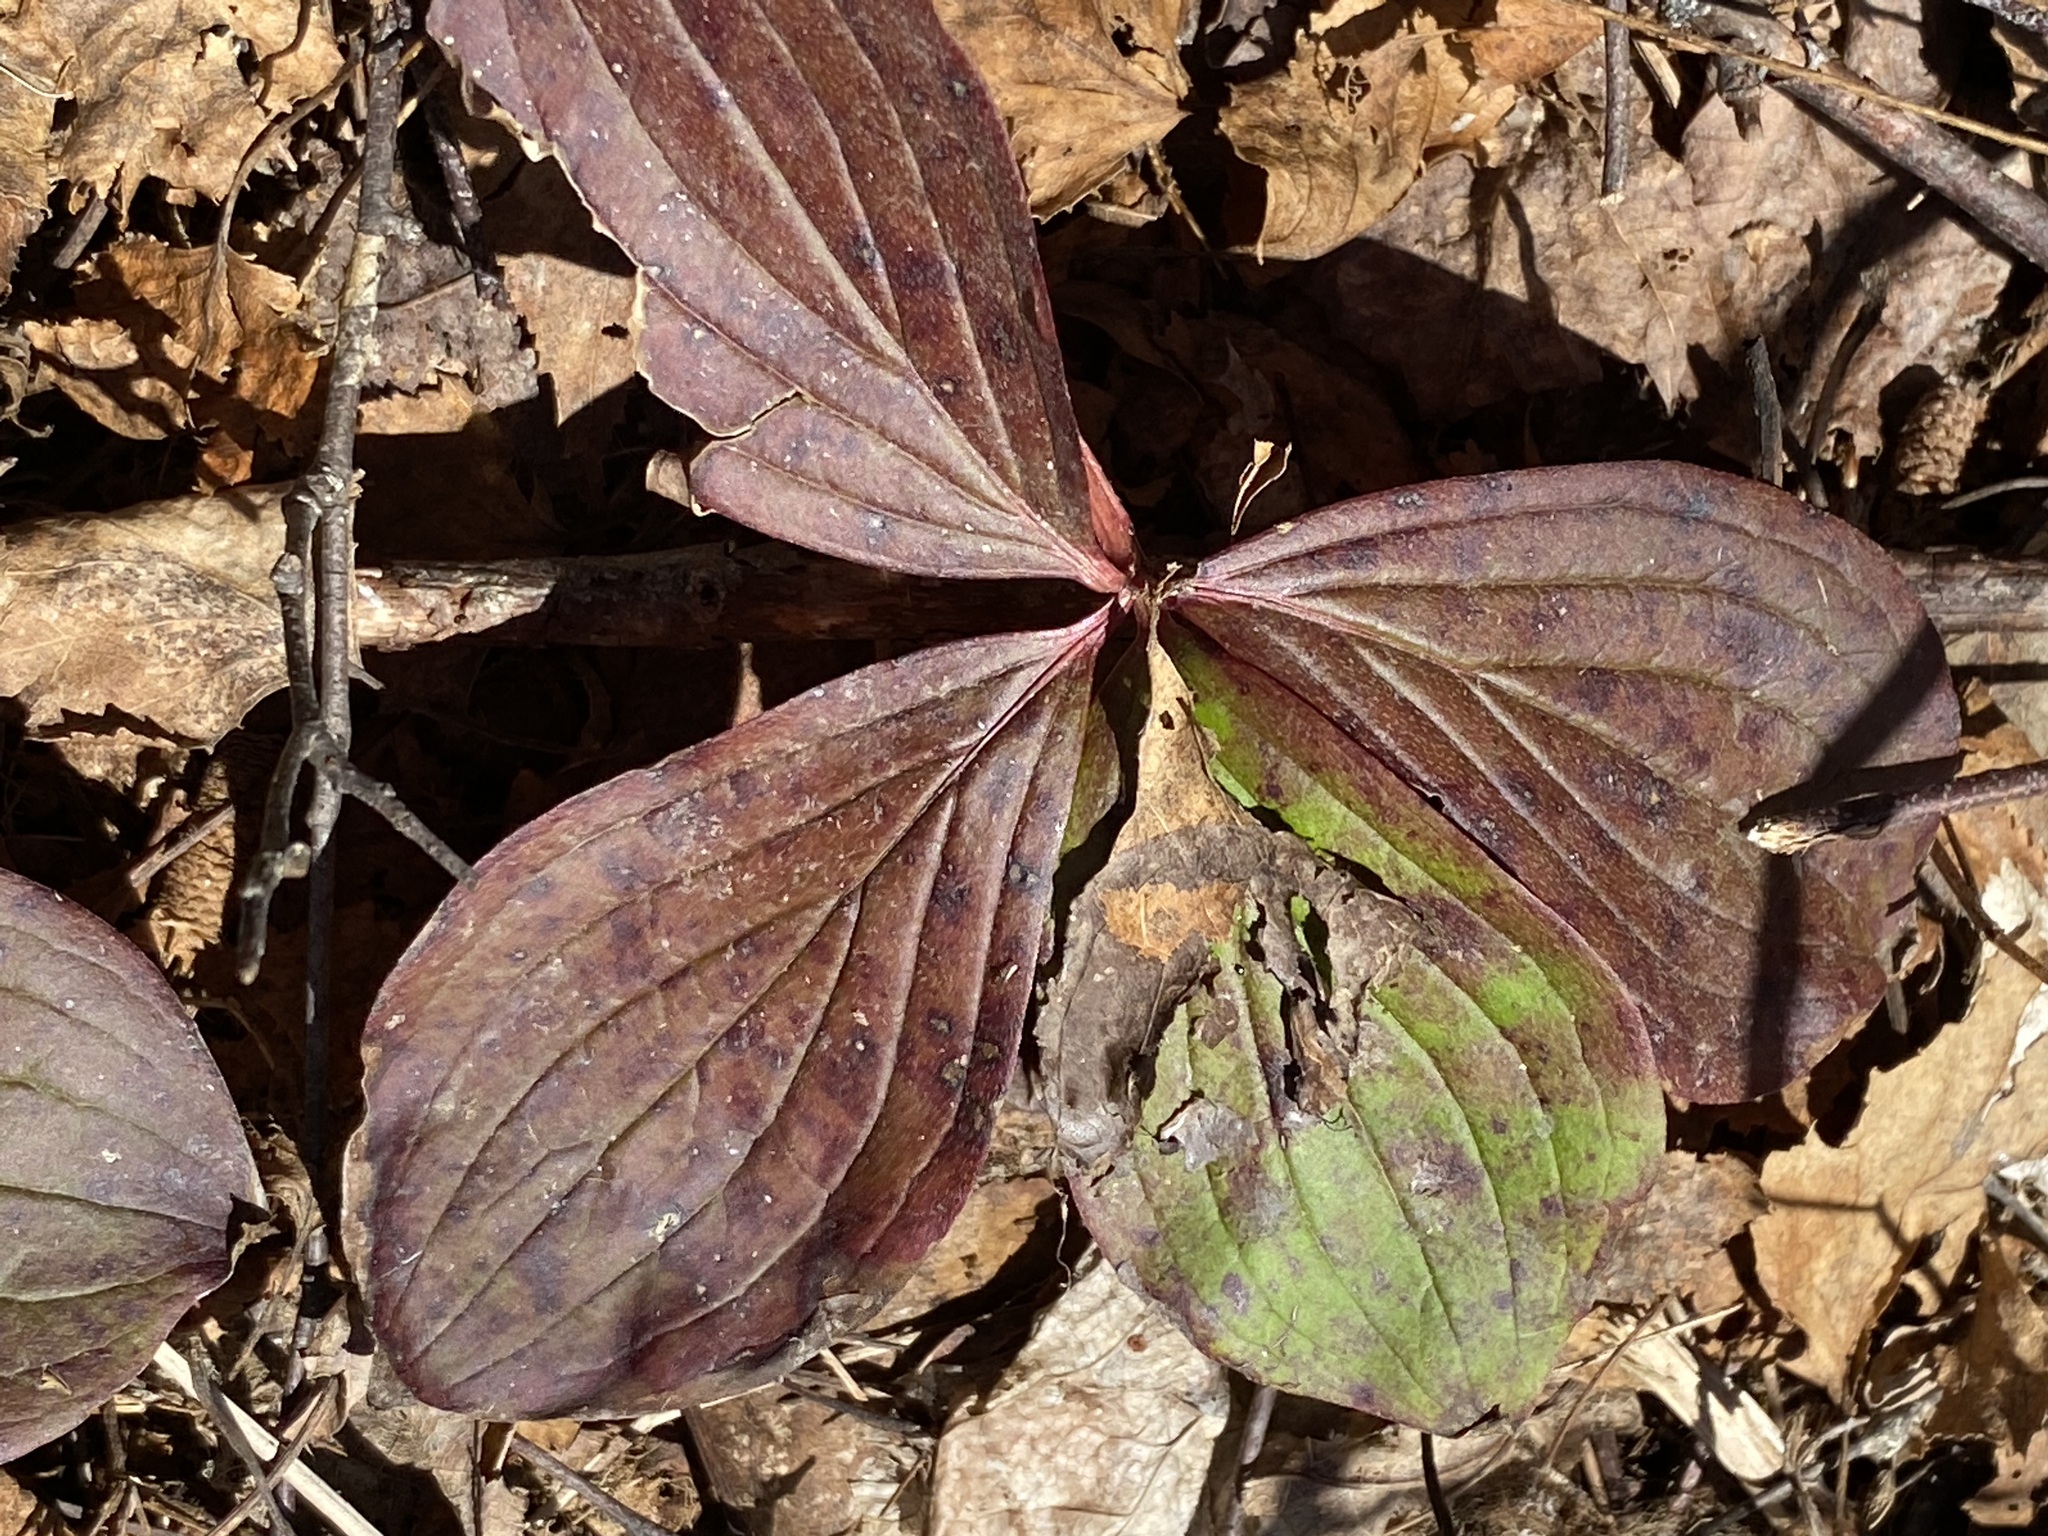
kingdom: Plantae
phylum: Tracheophyta
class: Magnoliopsida
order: Cornales
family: Cornaceae
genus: Cornus
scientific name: Cornus canadensis
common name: Creeping dogwood
